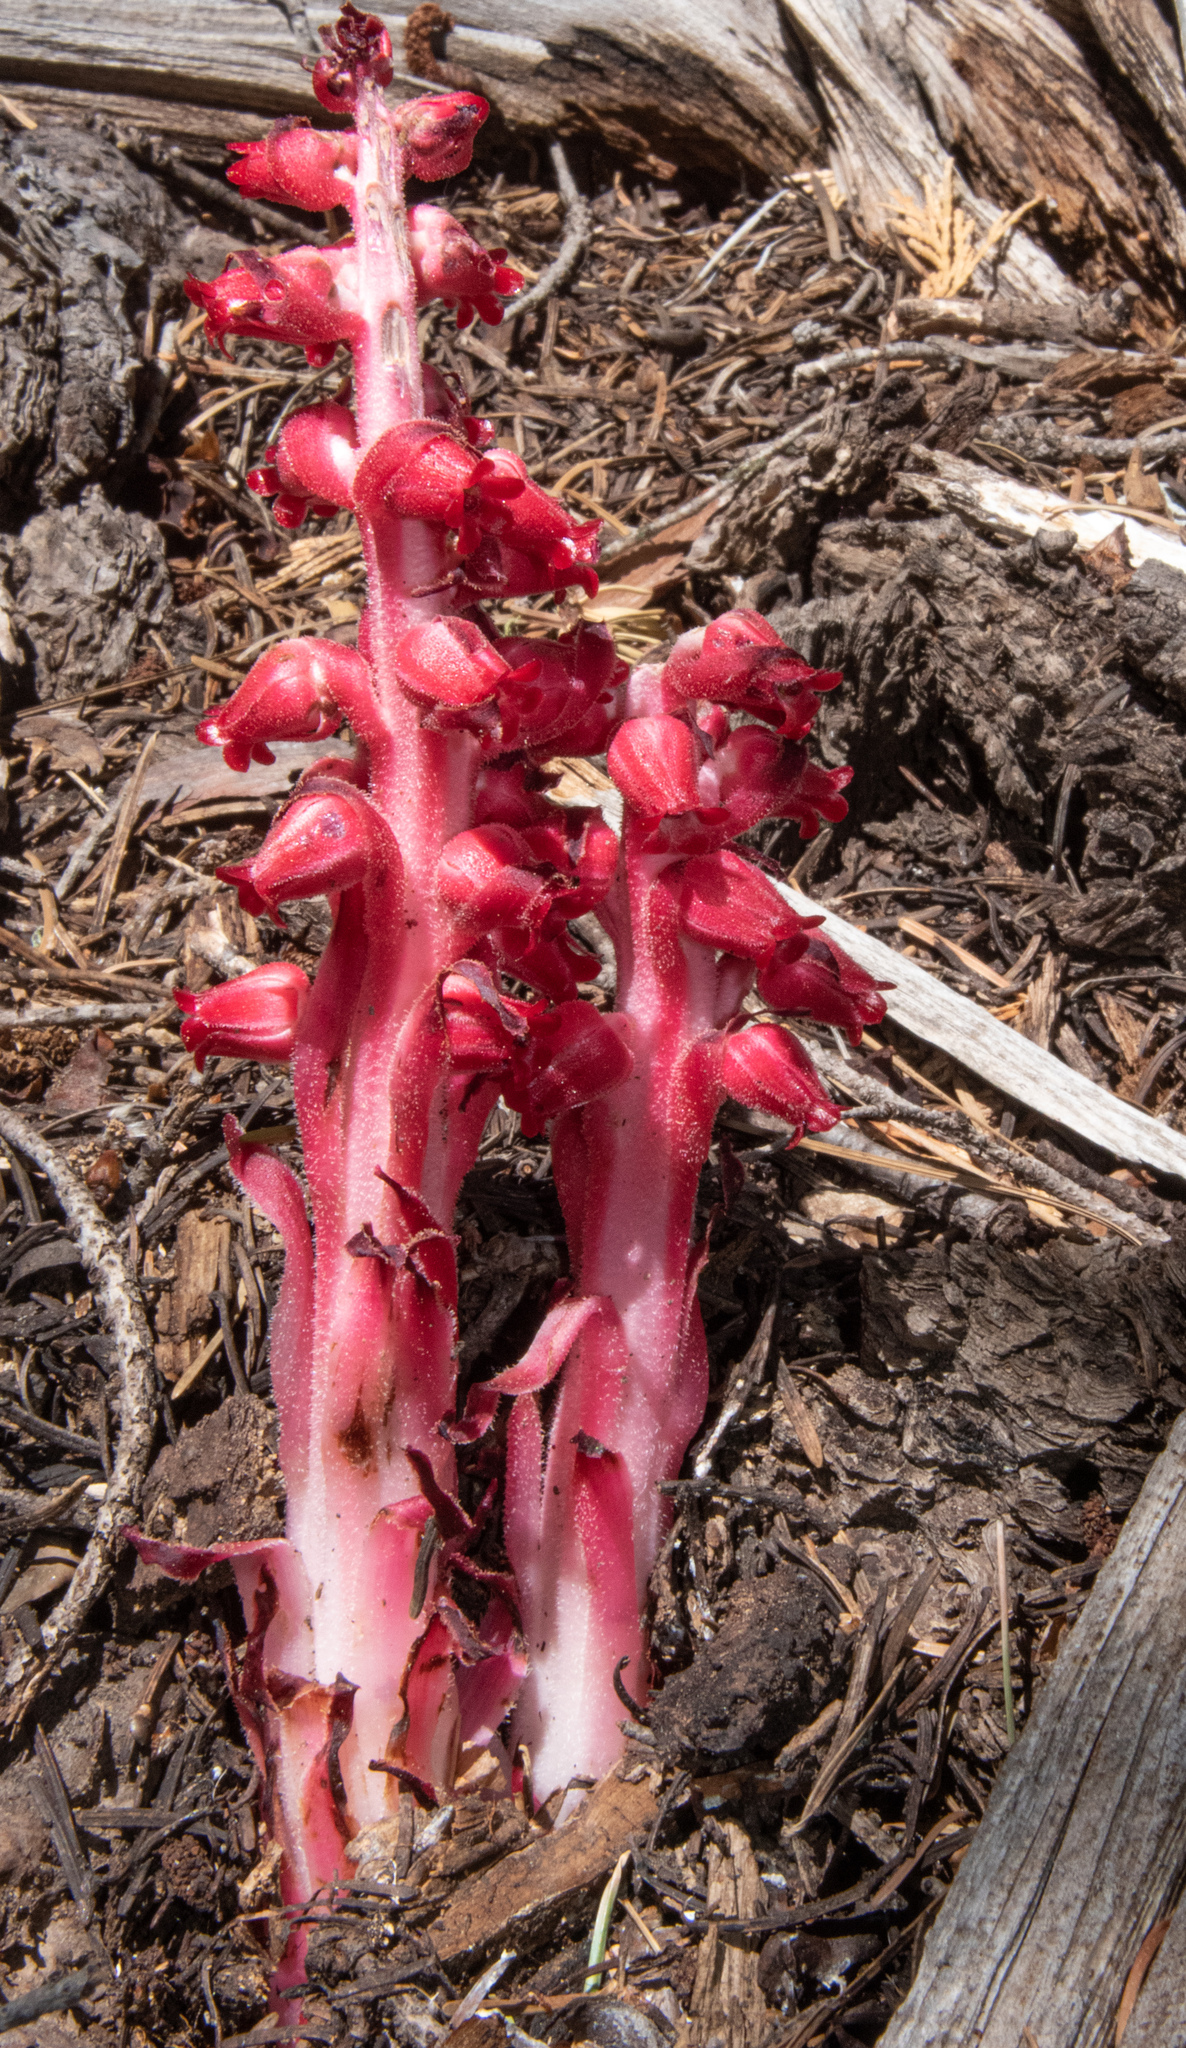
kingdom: Plantae
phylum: Tracheophyta
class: Magnoliopsida
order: Ericales
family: Ericaceae
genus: Sarcodes
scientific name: Sarcodes sanguinea
